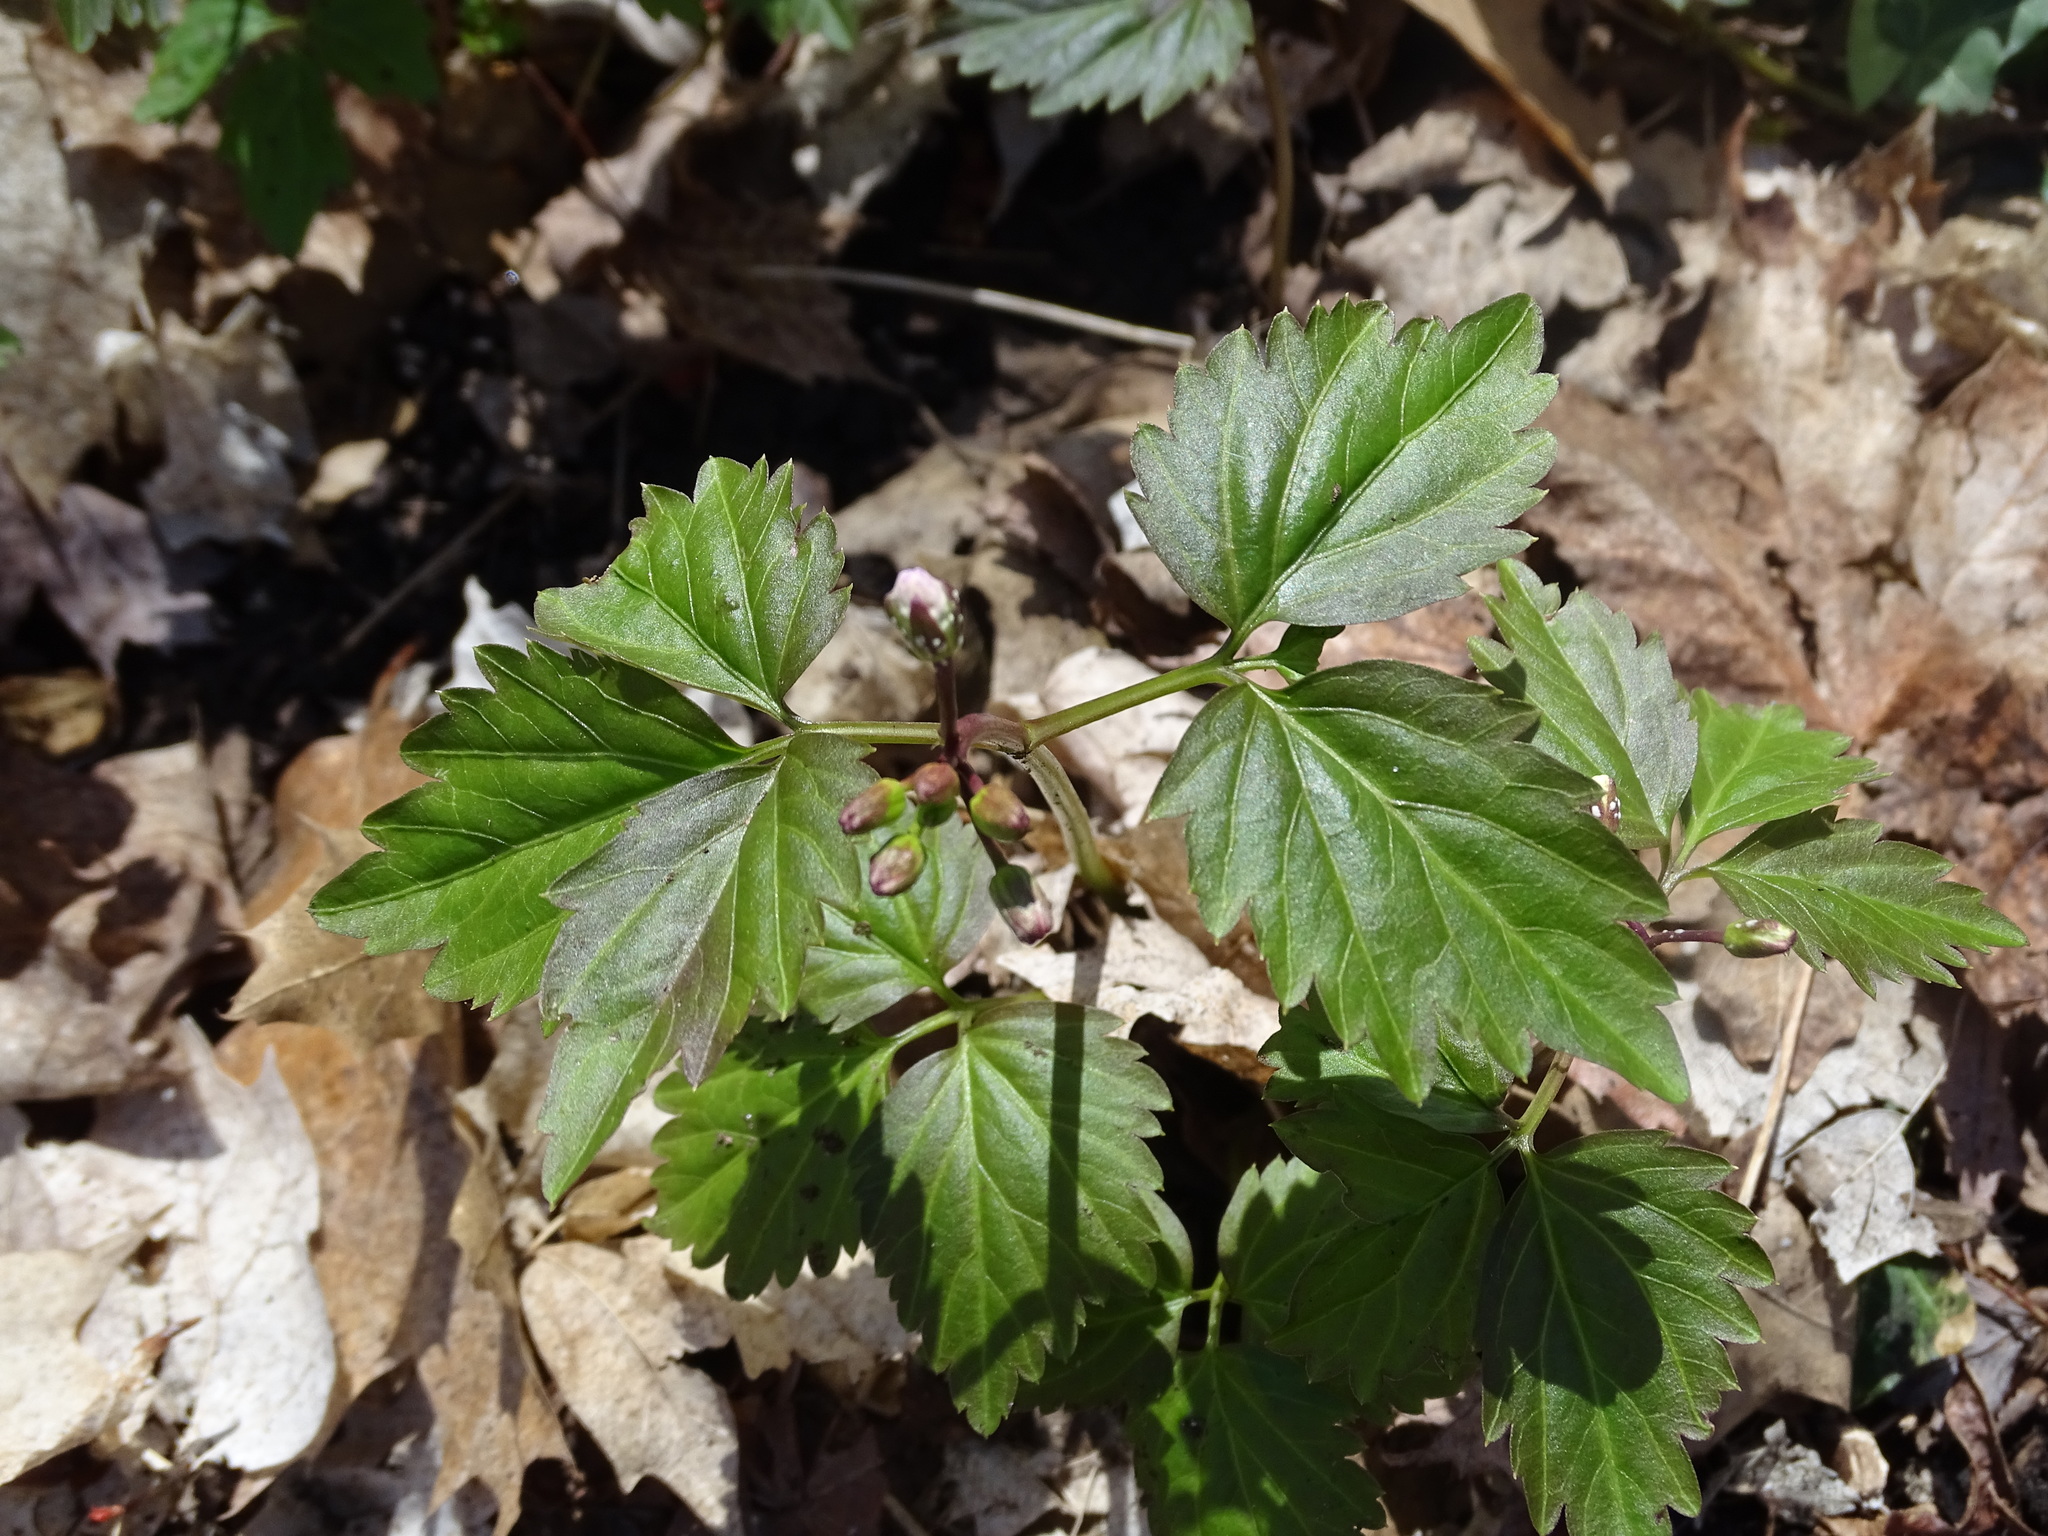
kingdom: Plantae
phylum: Tracheophyta
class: Magnoliopsida
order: Brassicales
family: Brassicaceae
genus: Cardamine
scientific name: Cardamine diphylla
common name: Broad-leaved toothwort
